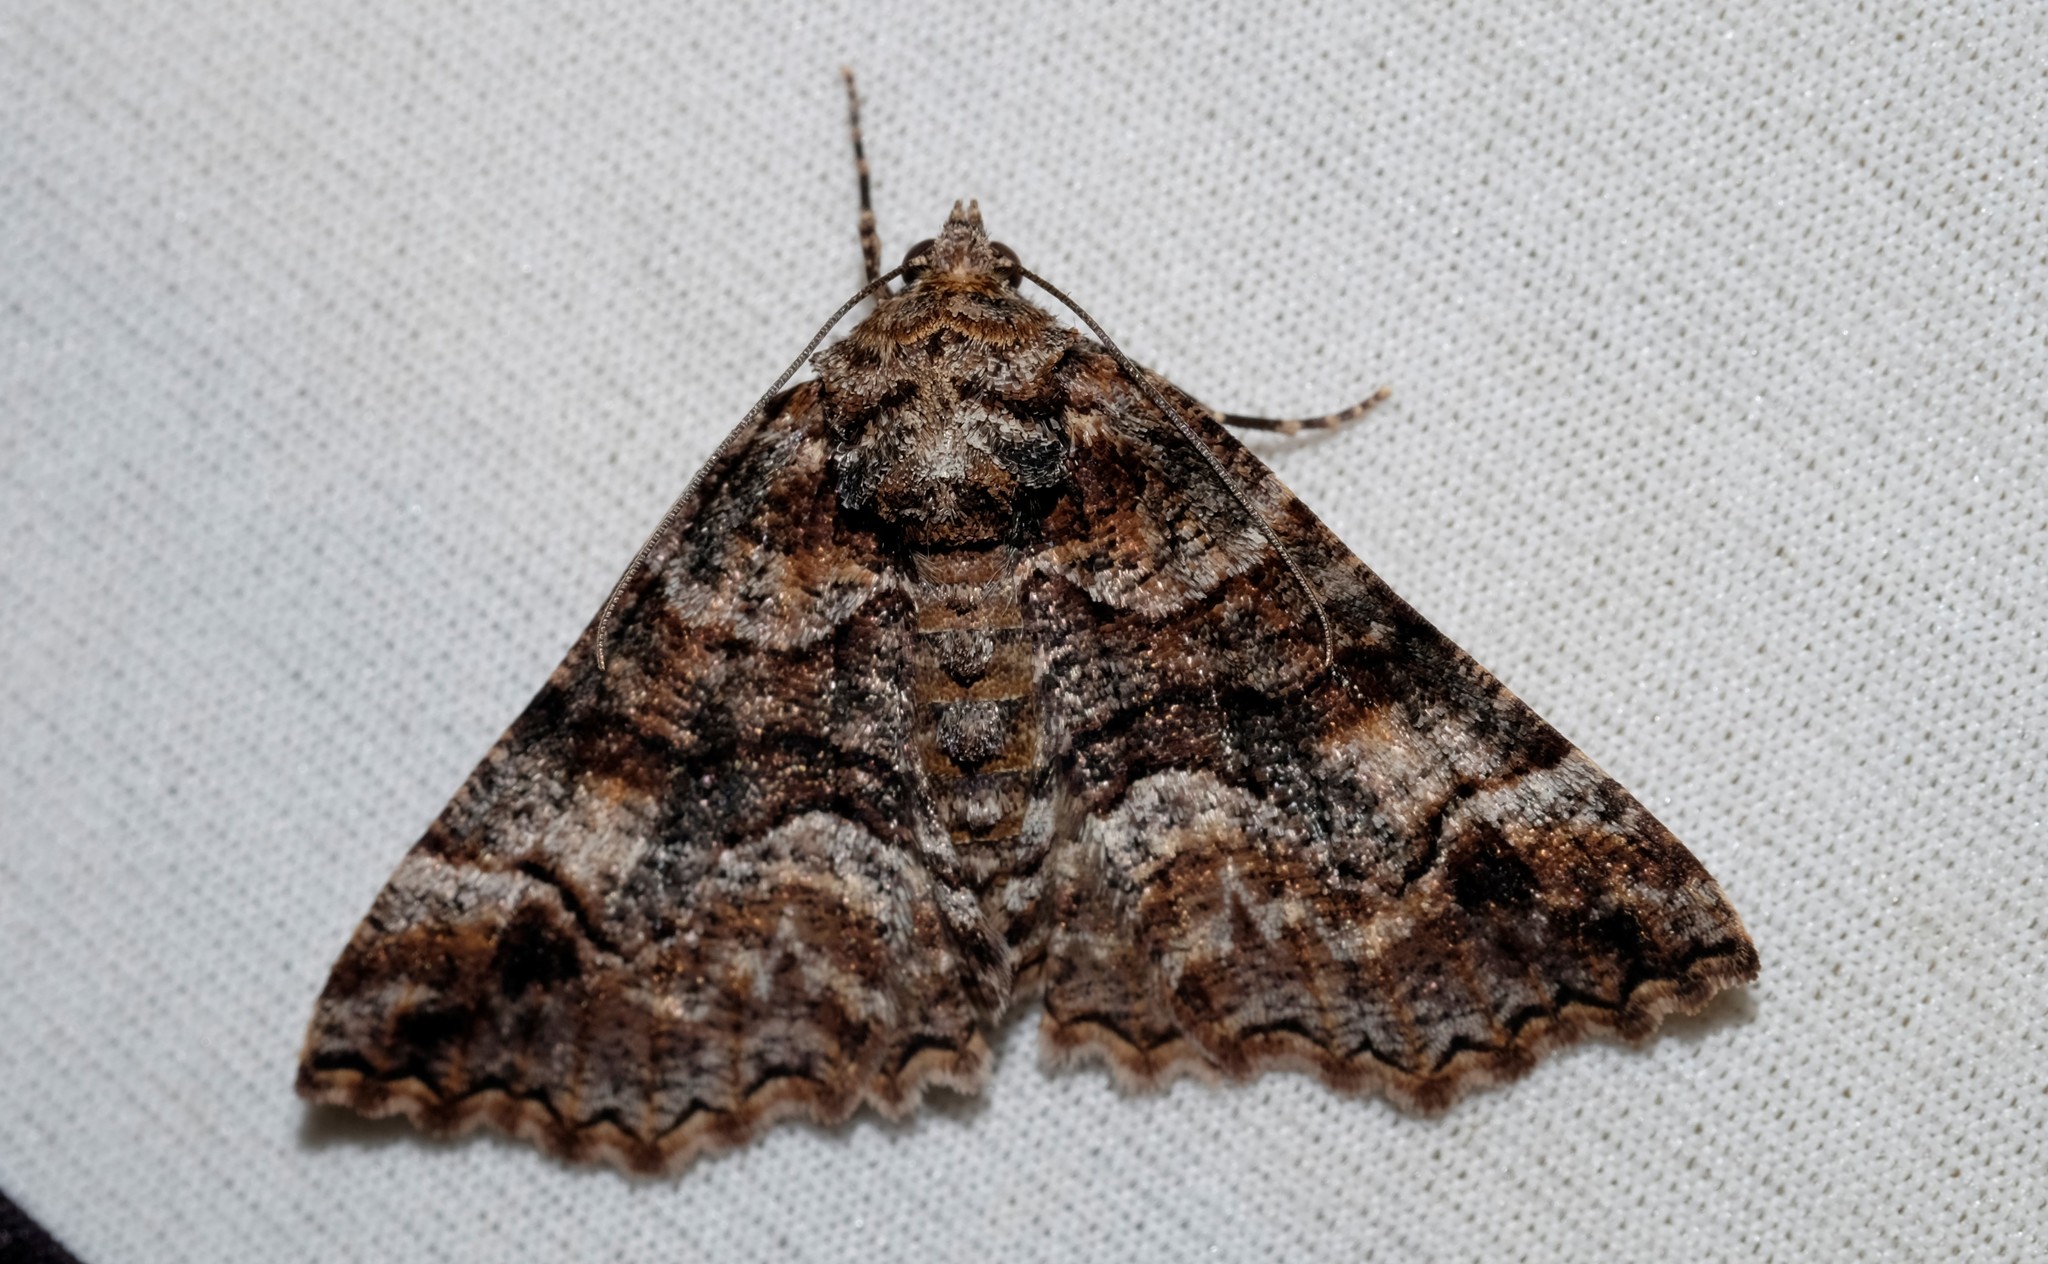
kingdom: Animalia
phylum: Arthropoda
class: Insecta
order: Lepidoptera
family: Geometridae
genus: Gastrina
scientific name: Gastrina cristaria
